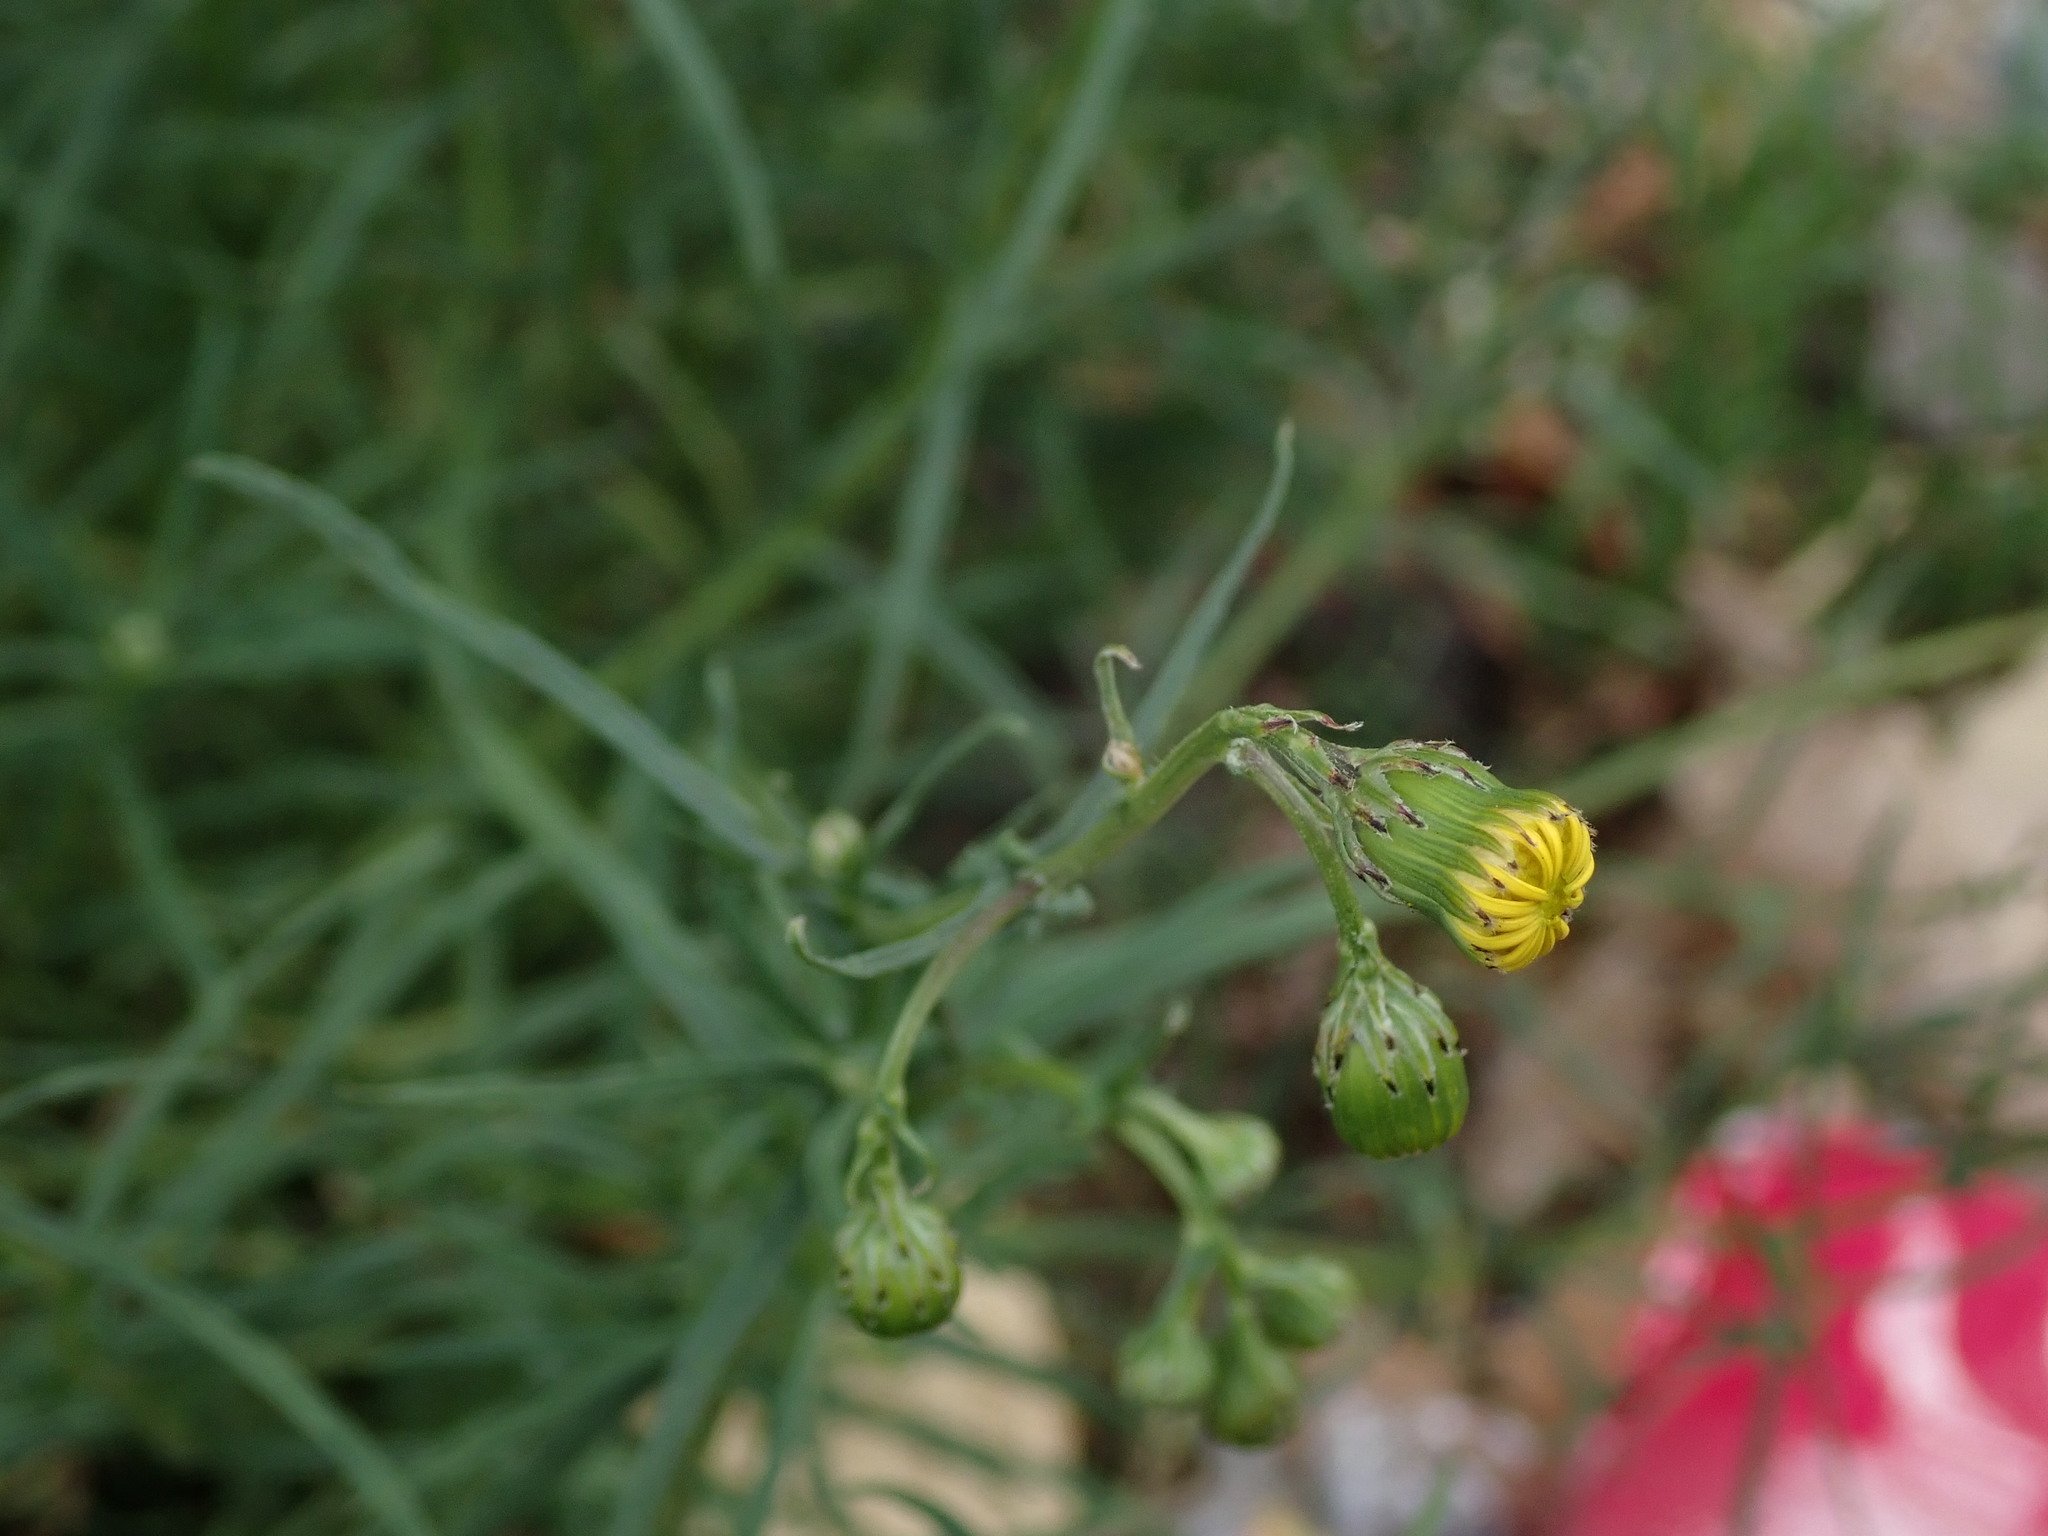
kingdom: Plantae
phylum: Tracheophyta
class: Magnoliopsida
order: Asterales
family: Asteraceae
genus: Senecio
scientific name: Senecio inaequidens
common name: Narrow-leaved ragwort
